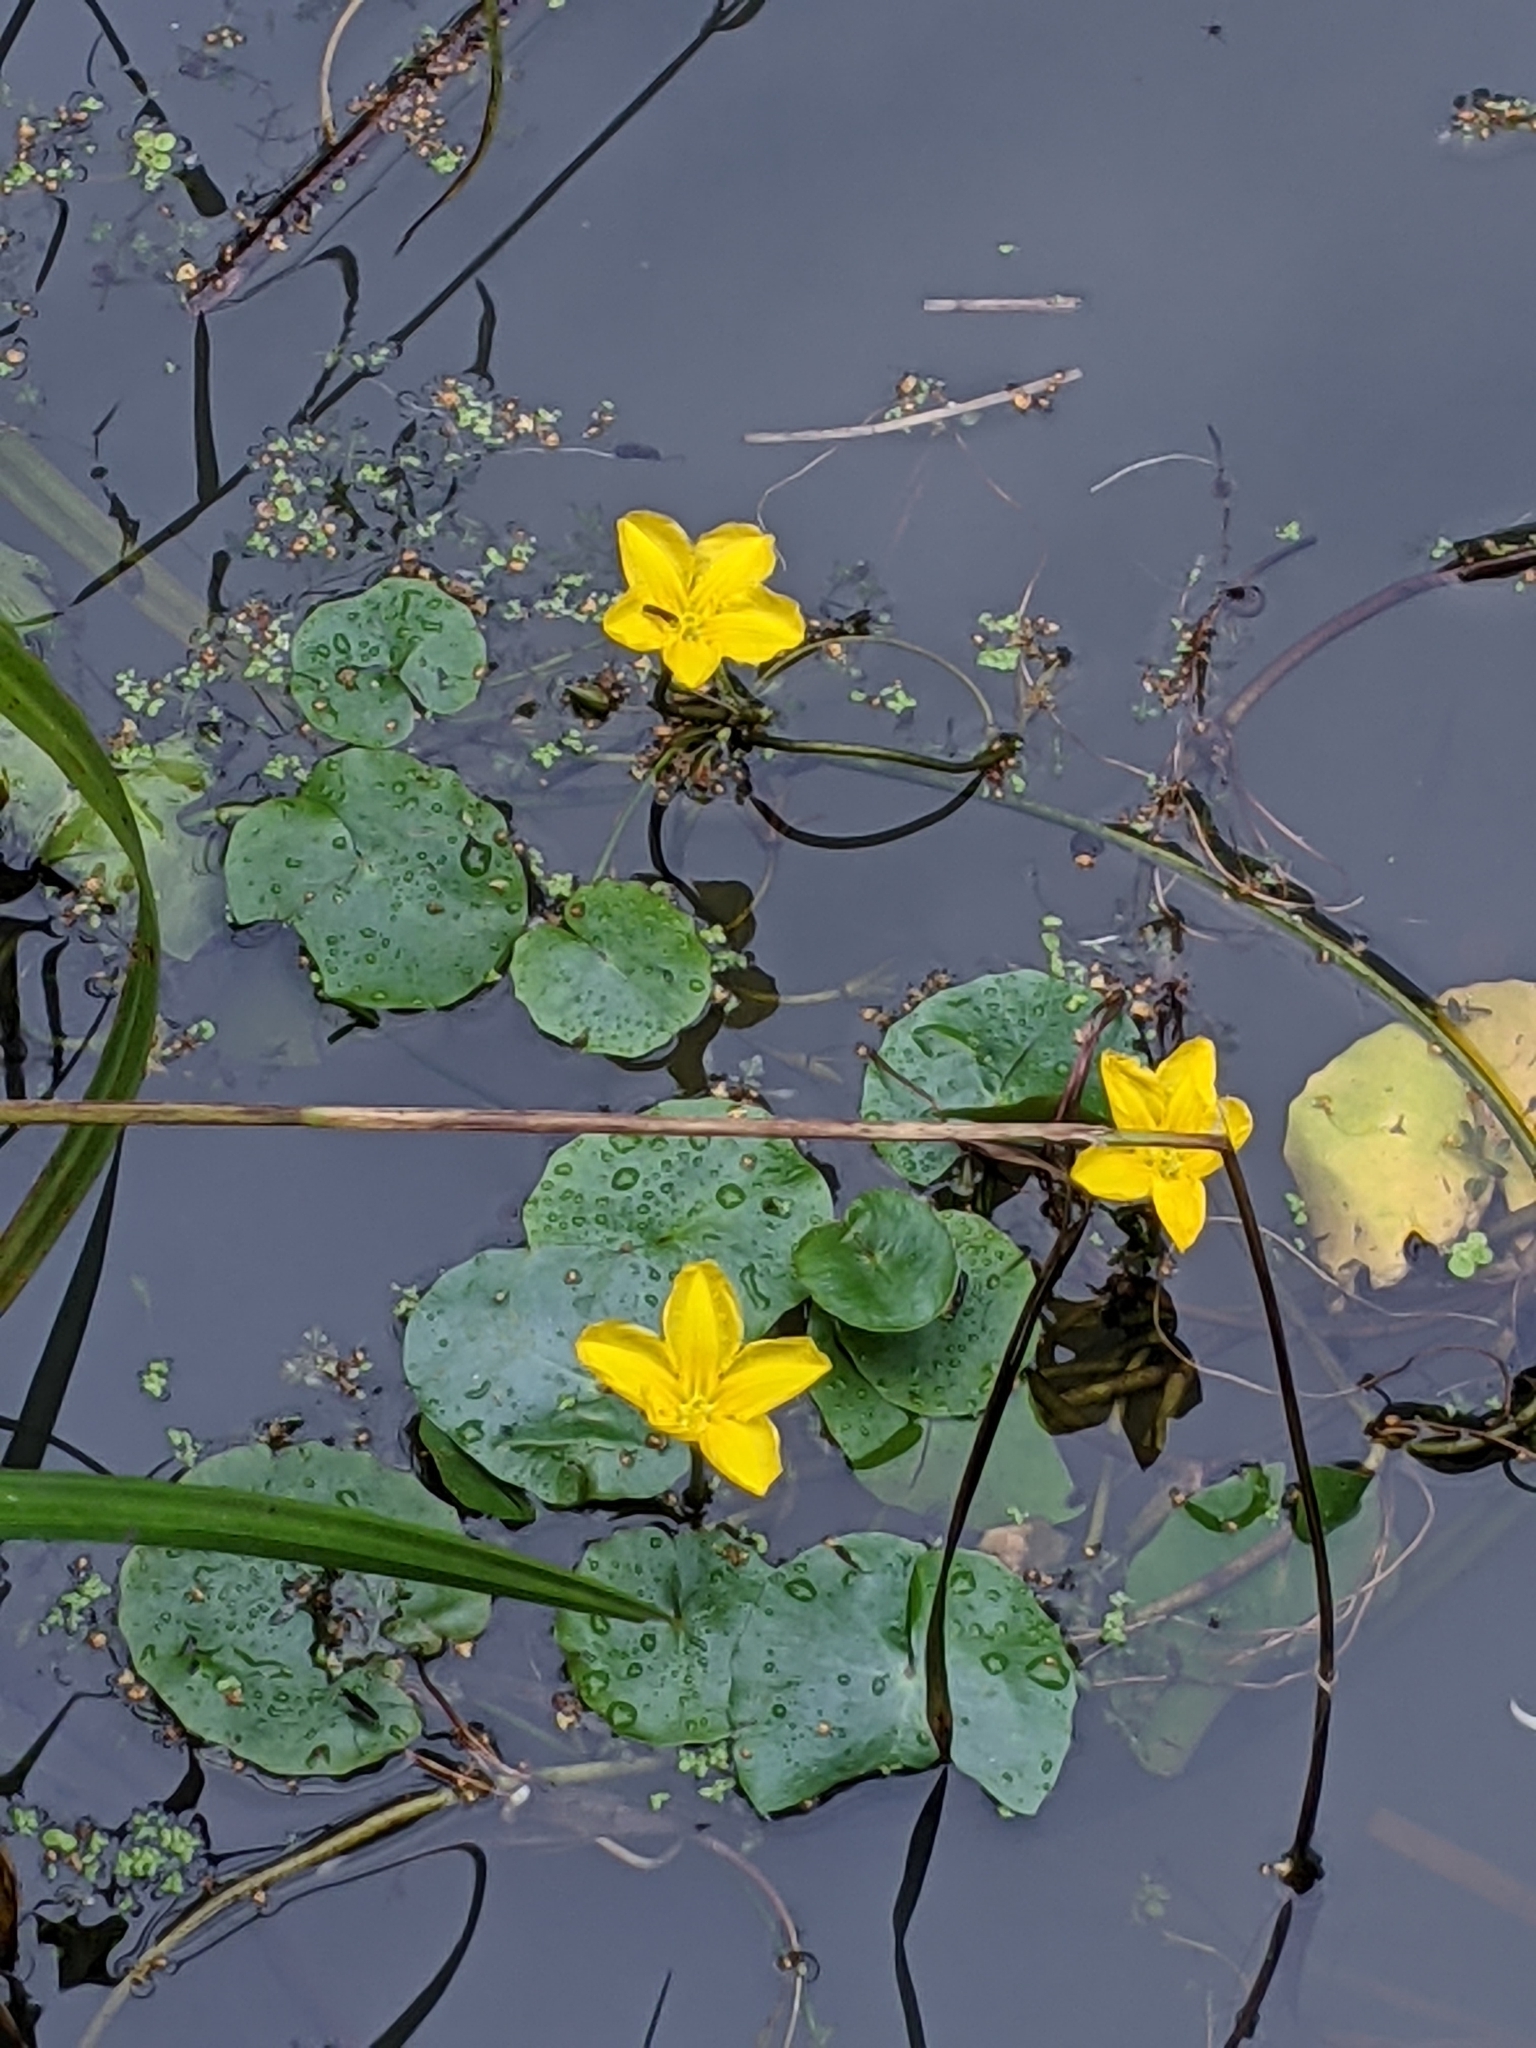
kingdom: Plantae
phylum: Tracheophyta
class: Magnoliopsida
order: Asterales
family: Menyanthaceae
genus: Nymphoides
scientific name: Nymphoides peltata
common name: Fringed water-lily
